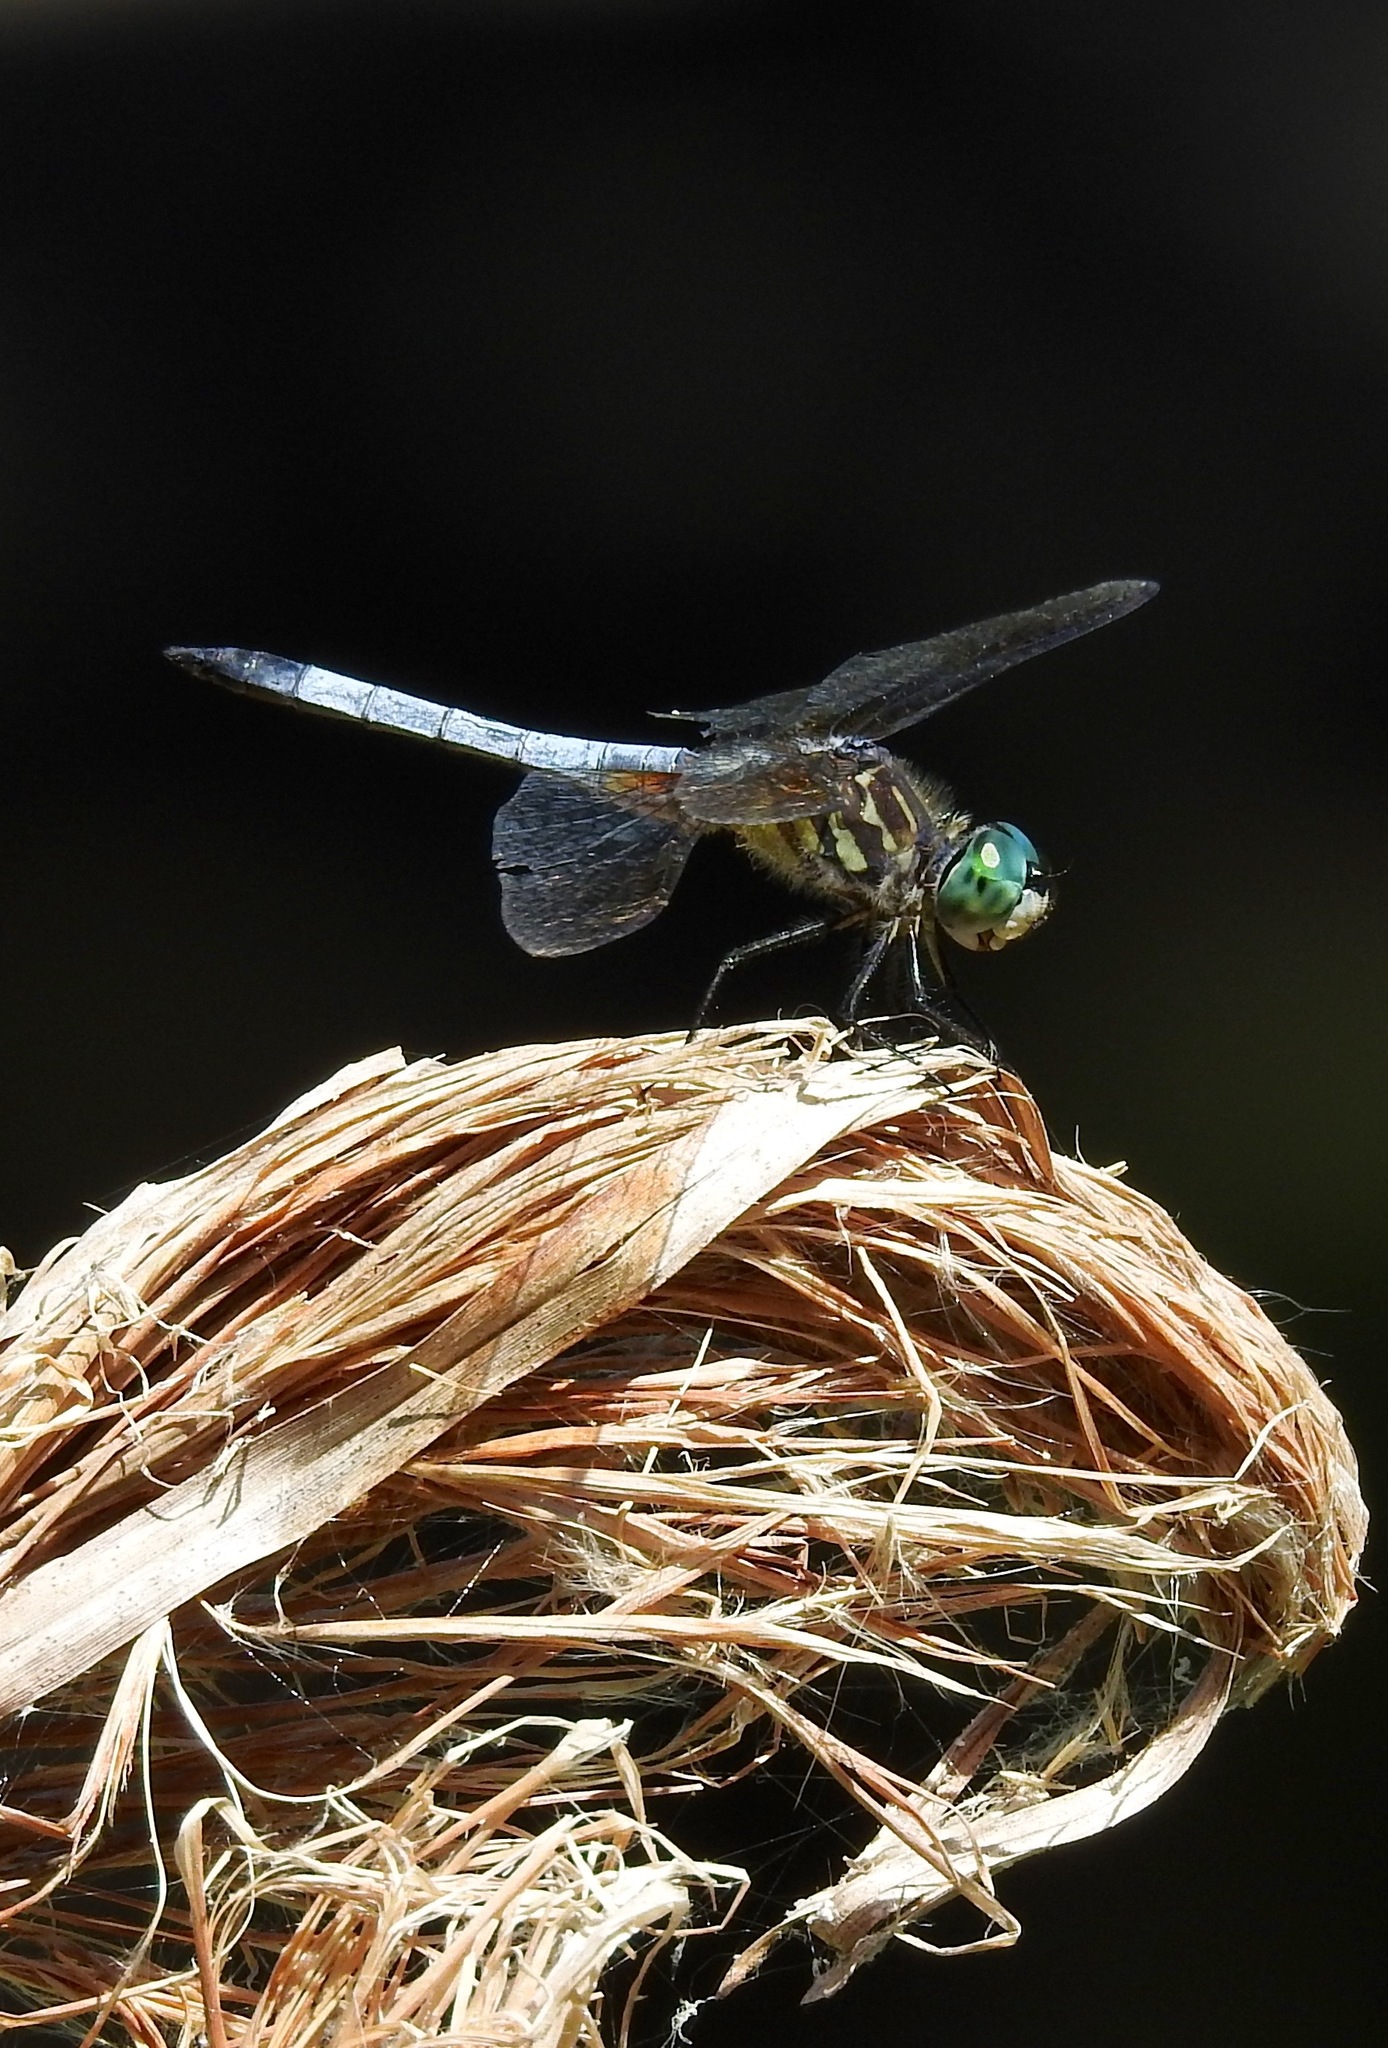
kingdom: Animalia
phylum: Arthropoda
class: Insecta
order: Odonata
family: Libellulidae
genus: Pachydiplax
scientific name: Pachydiplax longipennis
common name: Blue dasher
